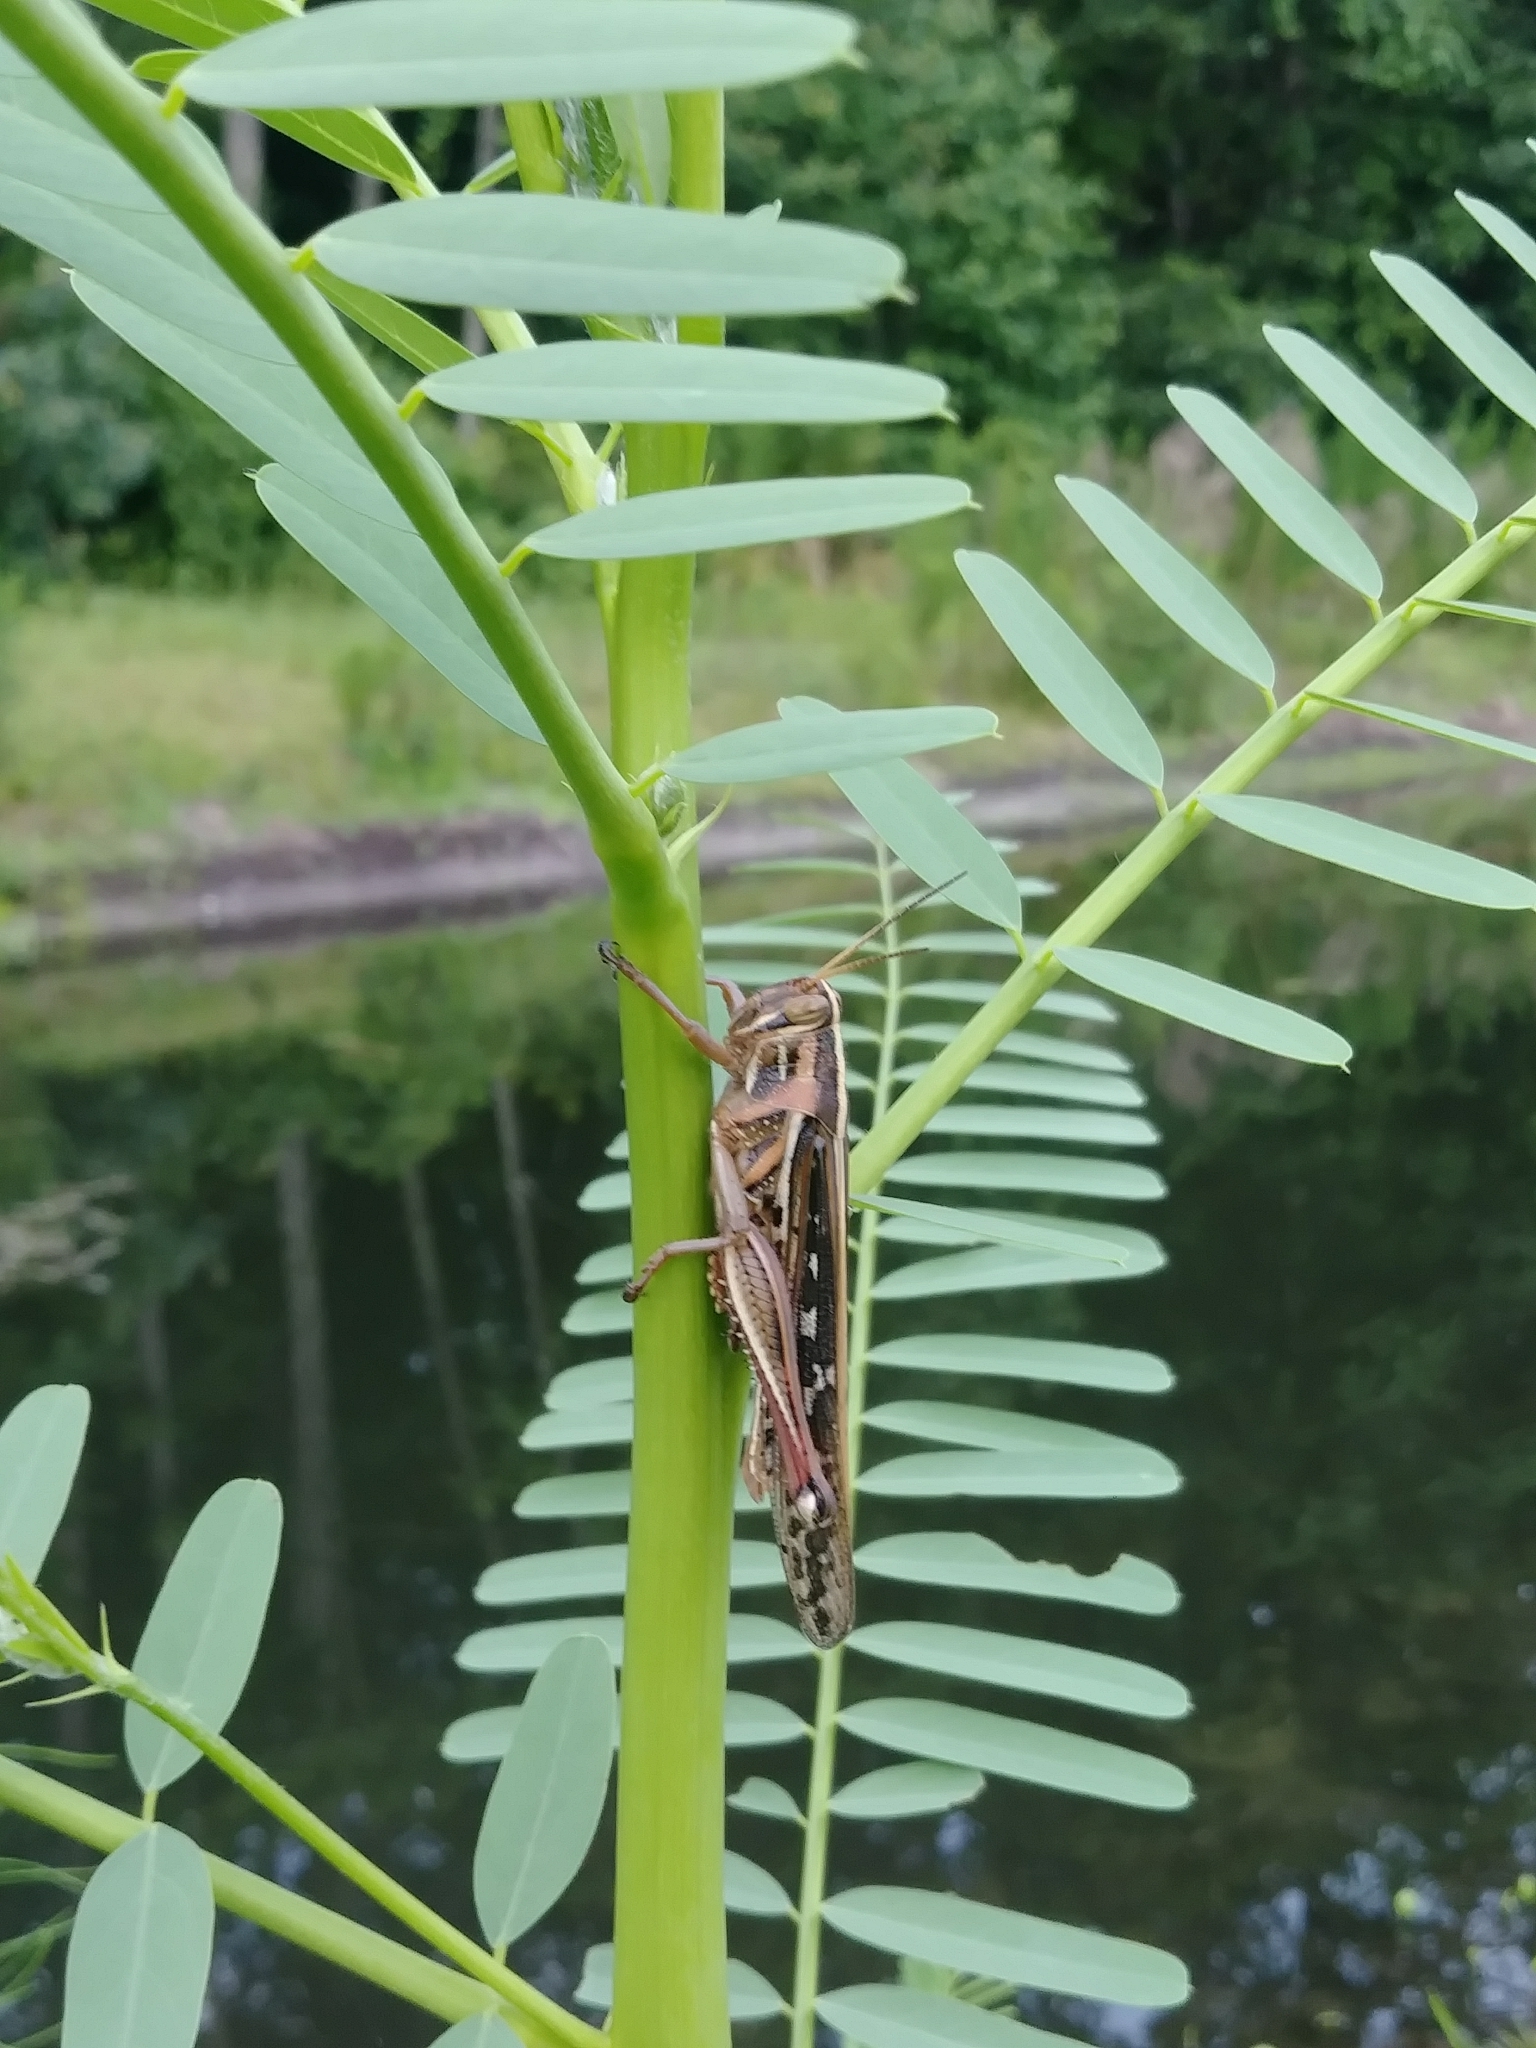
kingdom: Animalia
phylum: Arthropoda
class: Insecta
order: Orthoptera
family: Acrididae
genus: Schistocerca
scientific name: Schistocerca americana
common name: American bird locust
